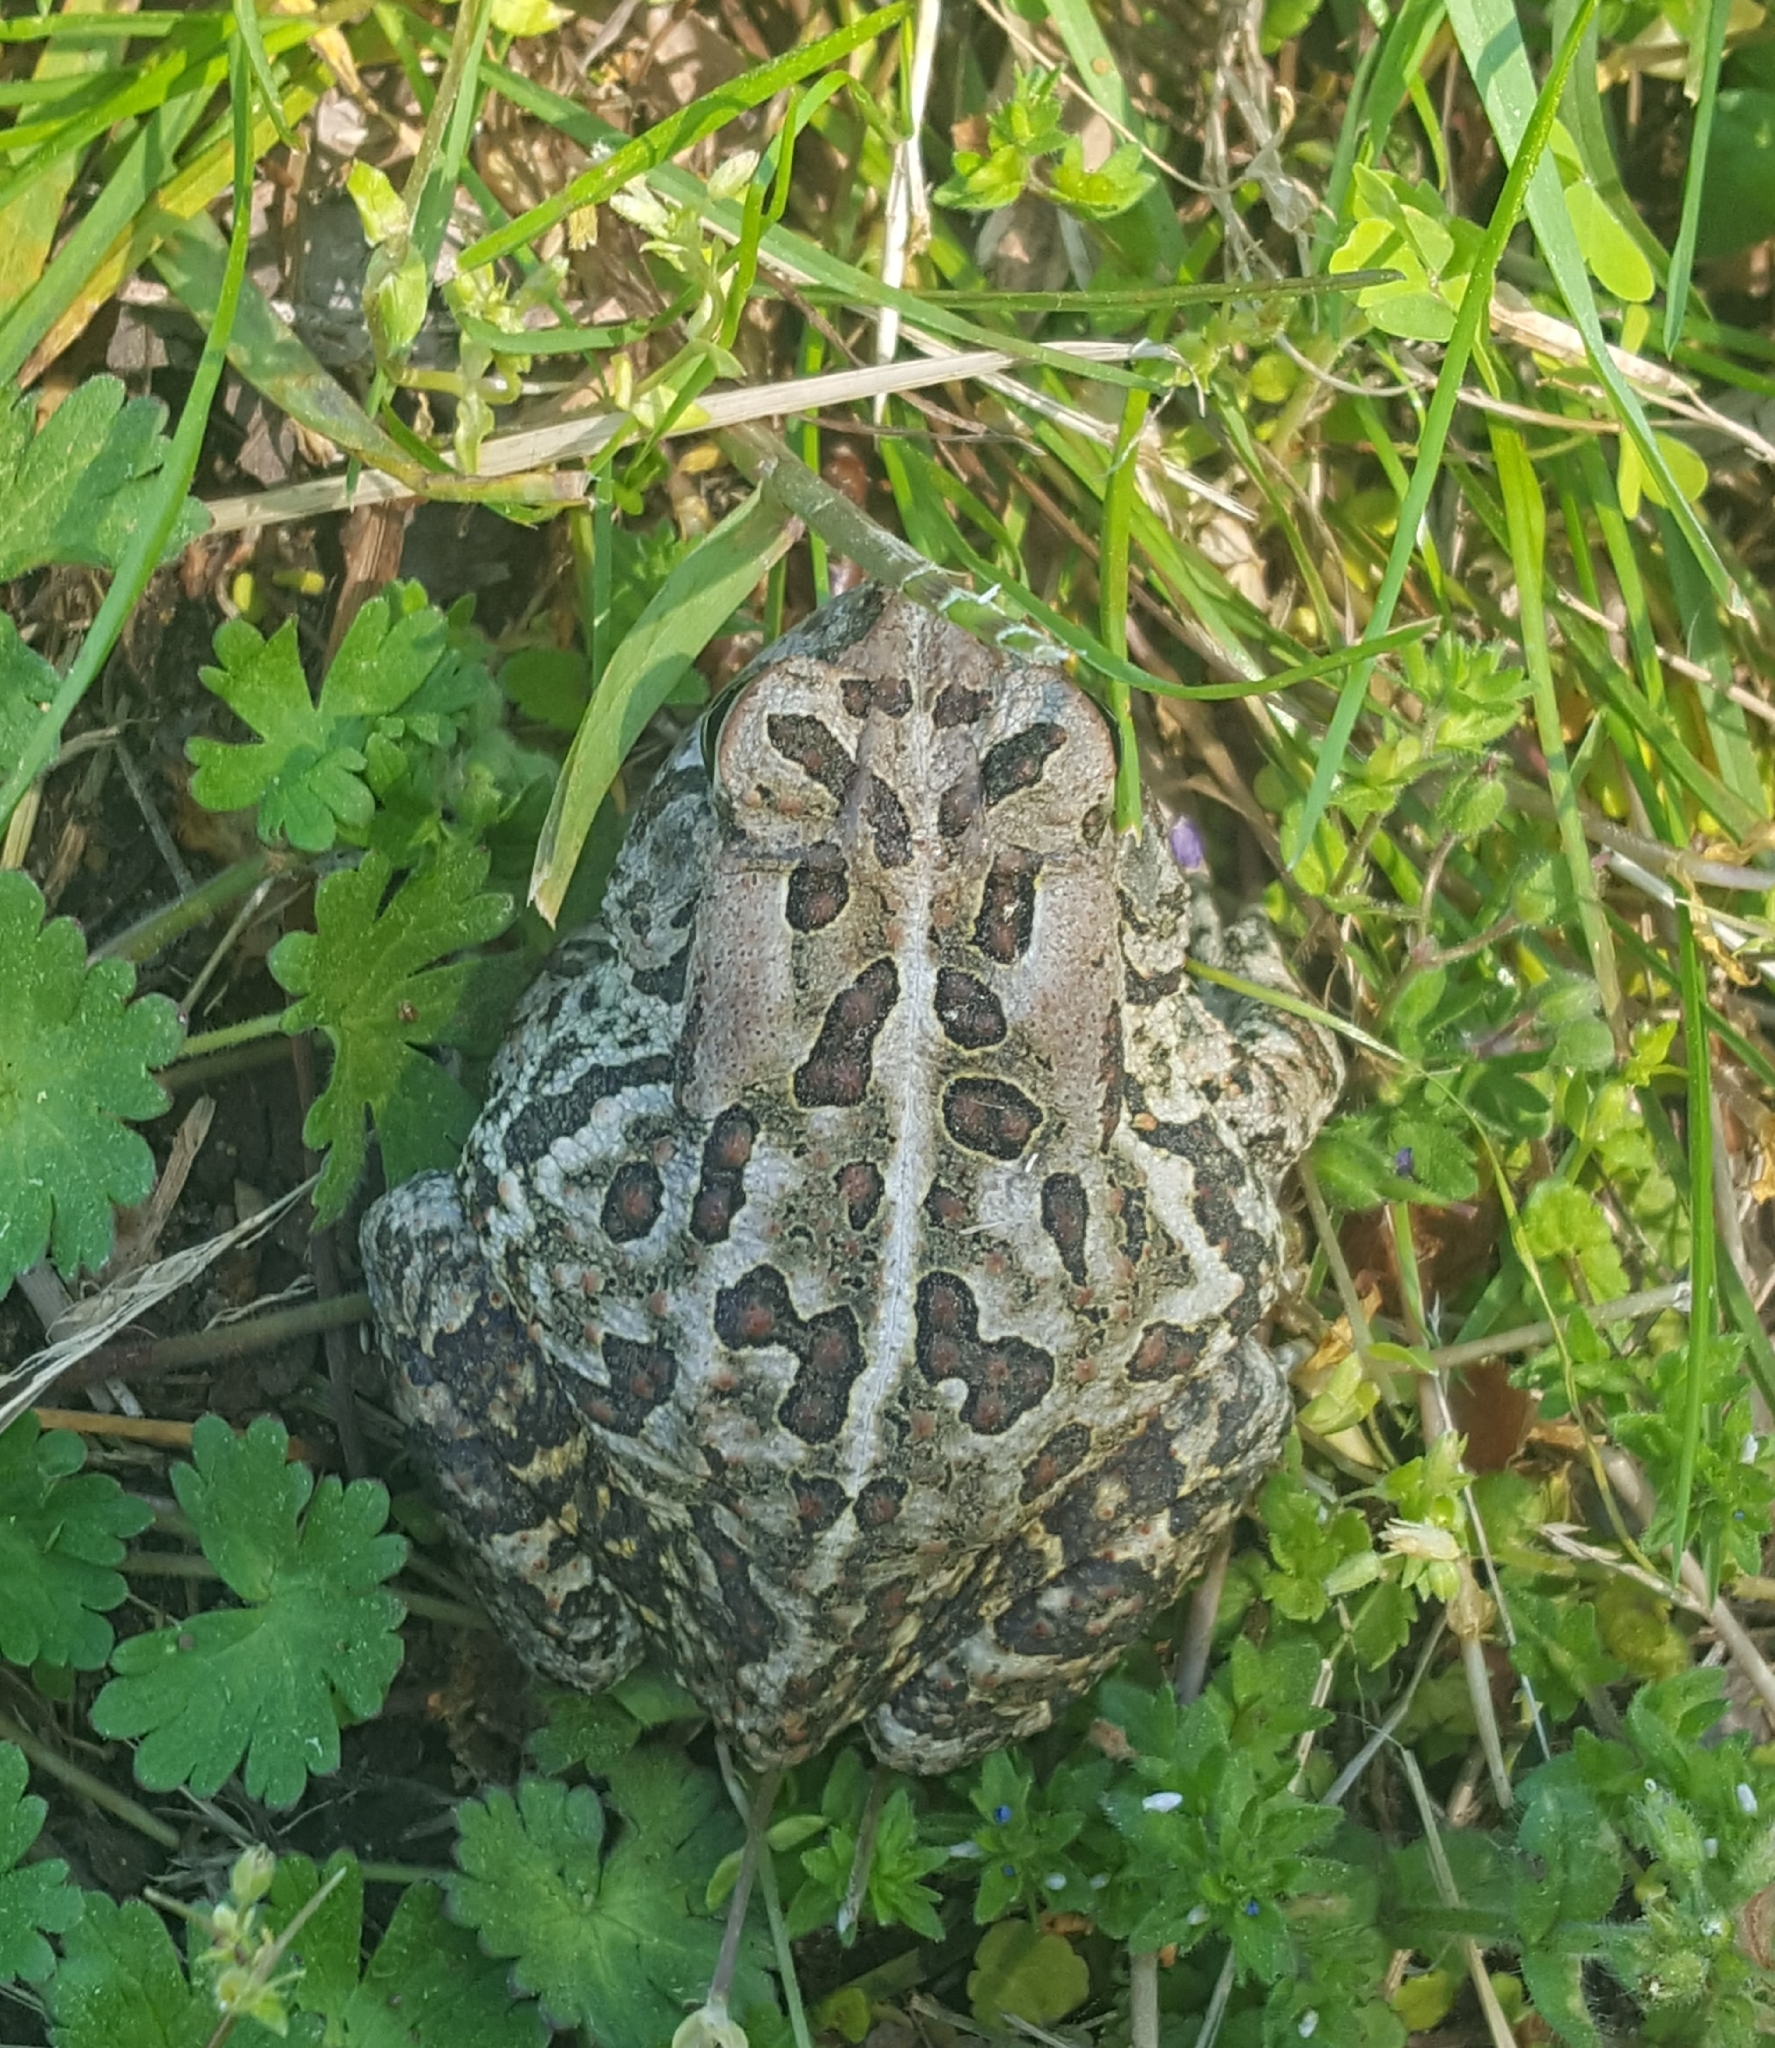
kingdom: Animalia
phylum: Chordata
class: Amphibia
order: Anura
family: Bufonidae
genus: Anaxyrus
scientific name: Anaxyrus fowleri
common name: Fowler's toad
